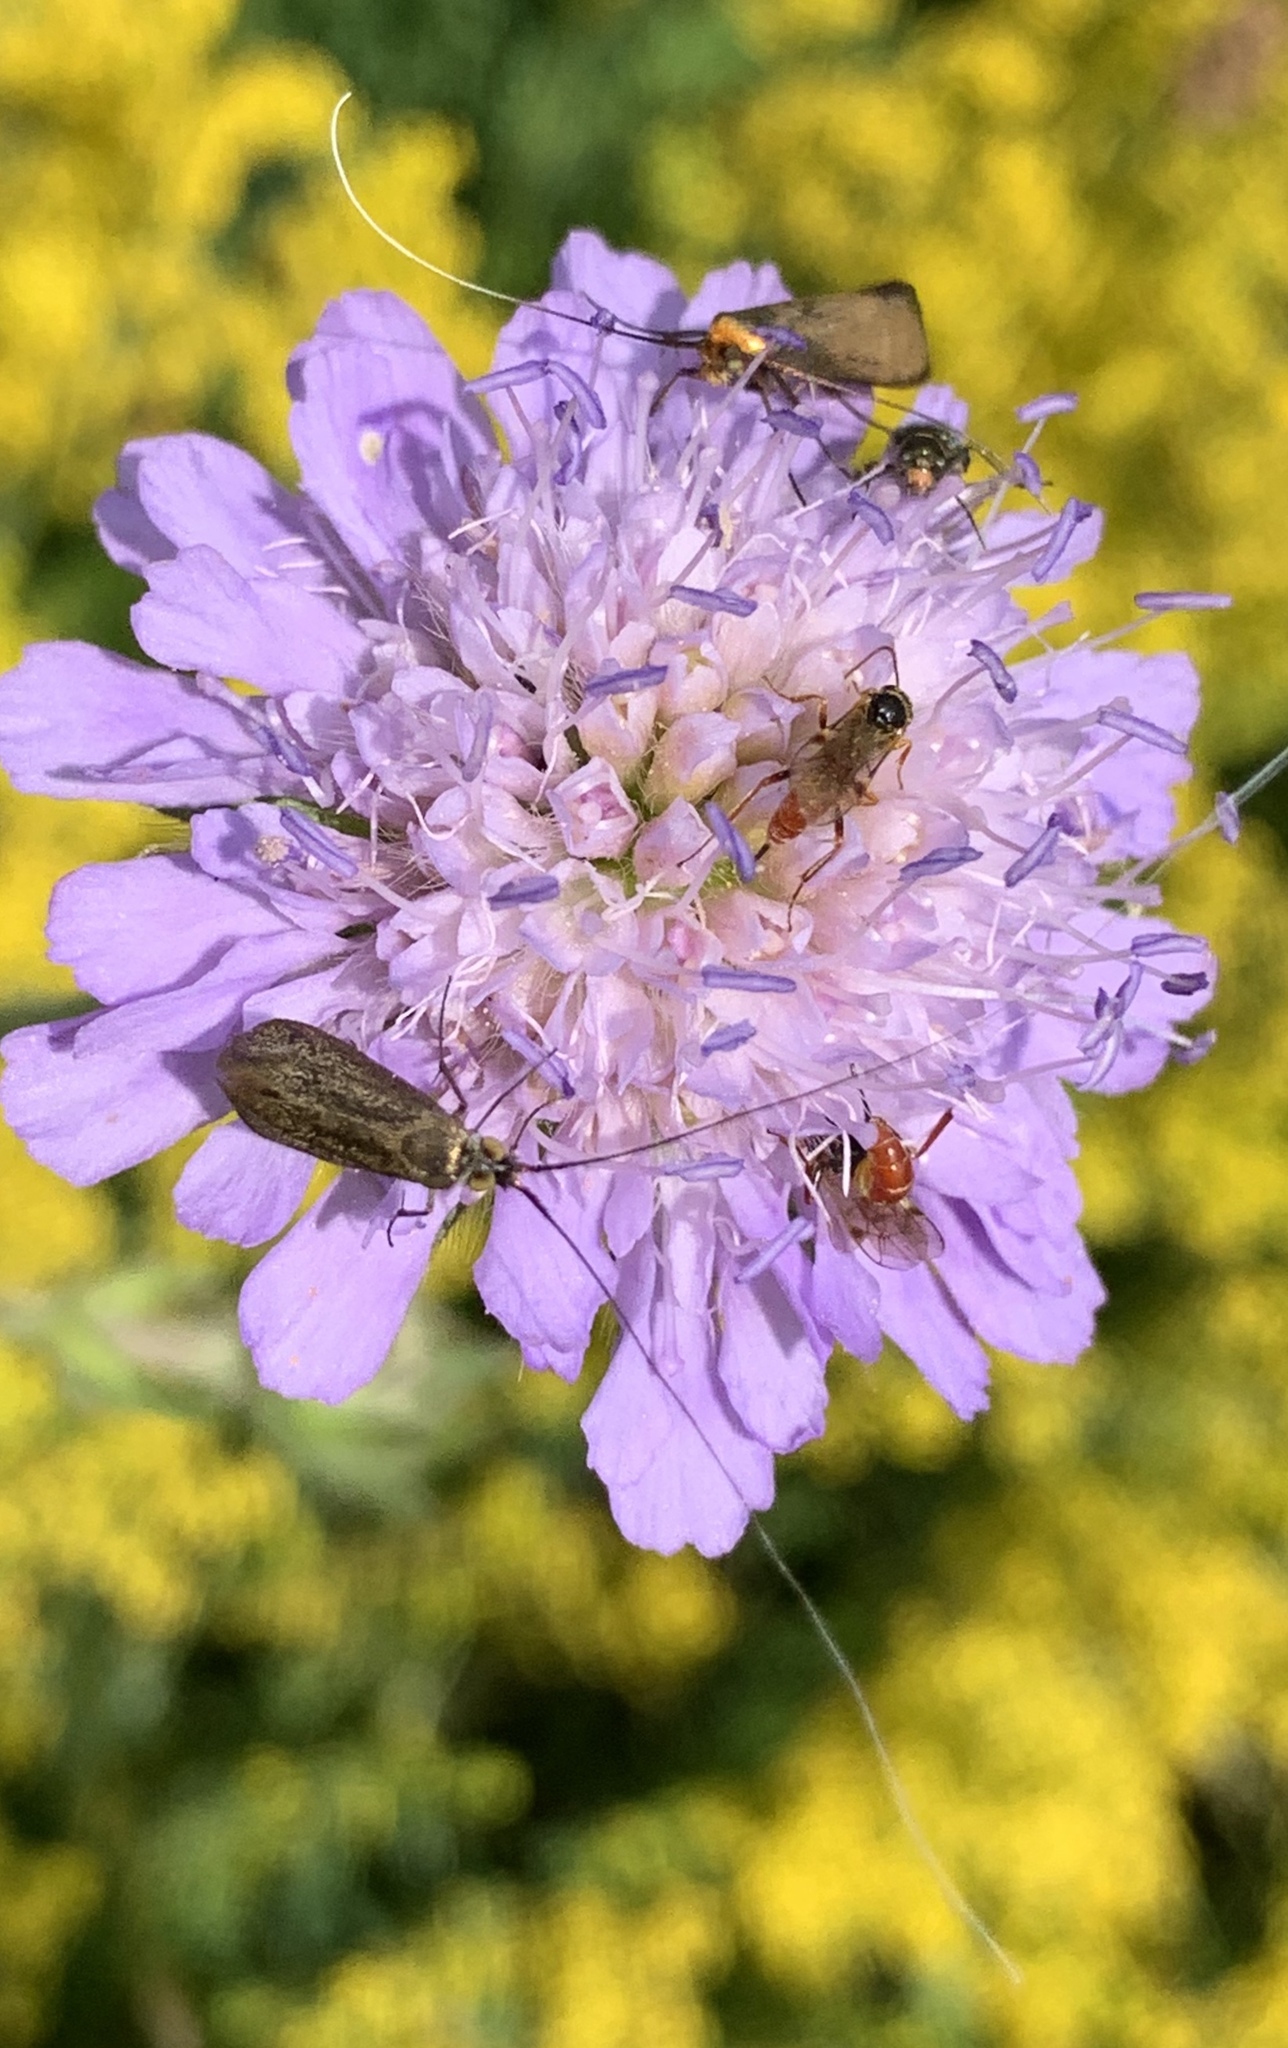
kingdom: Animalia
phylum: Arthropoda
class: Insecta
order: Lepidoptera
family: Adelidae
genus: Nemophora
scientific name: Nemophora metallica
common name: Brassy long-horn
